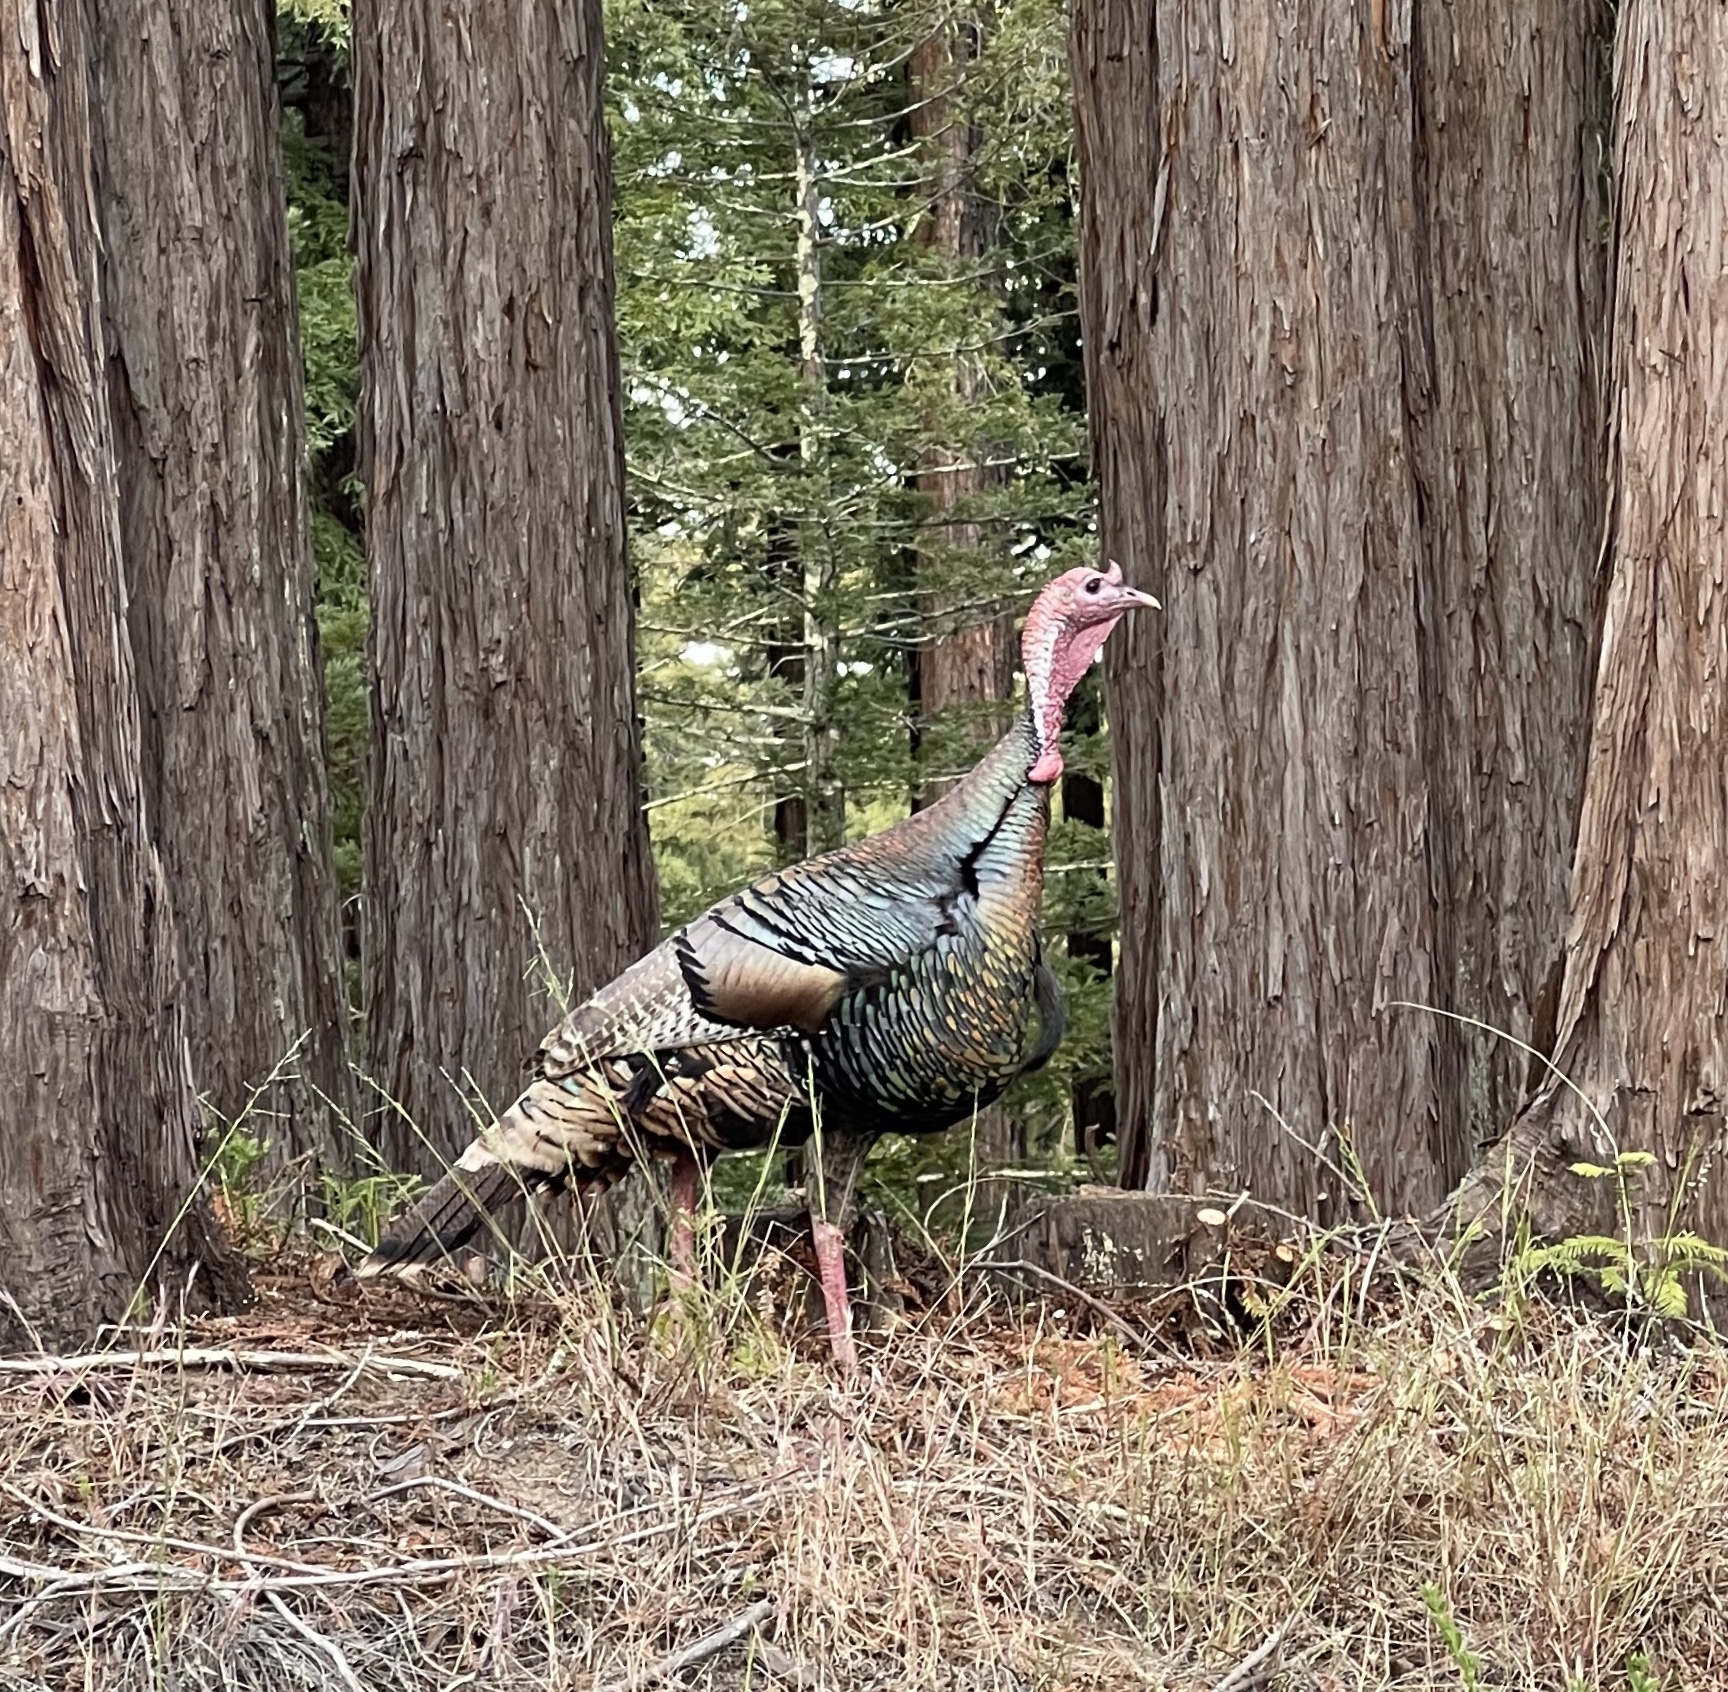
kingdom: Animalia
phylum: Chordata
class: Aves
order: Galliformes
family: Phasianidae
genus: Meleagris
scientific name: Meleagris gallopavo
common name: Wild turkey
